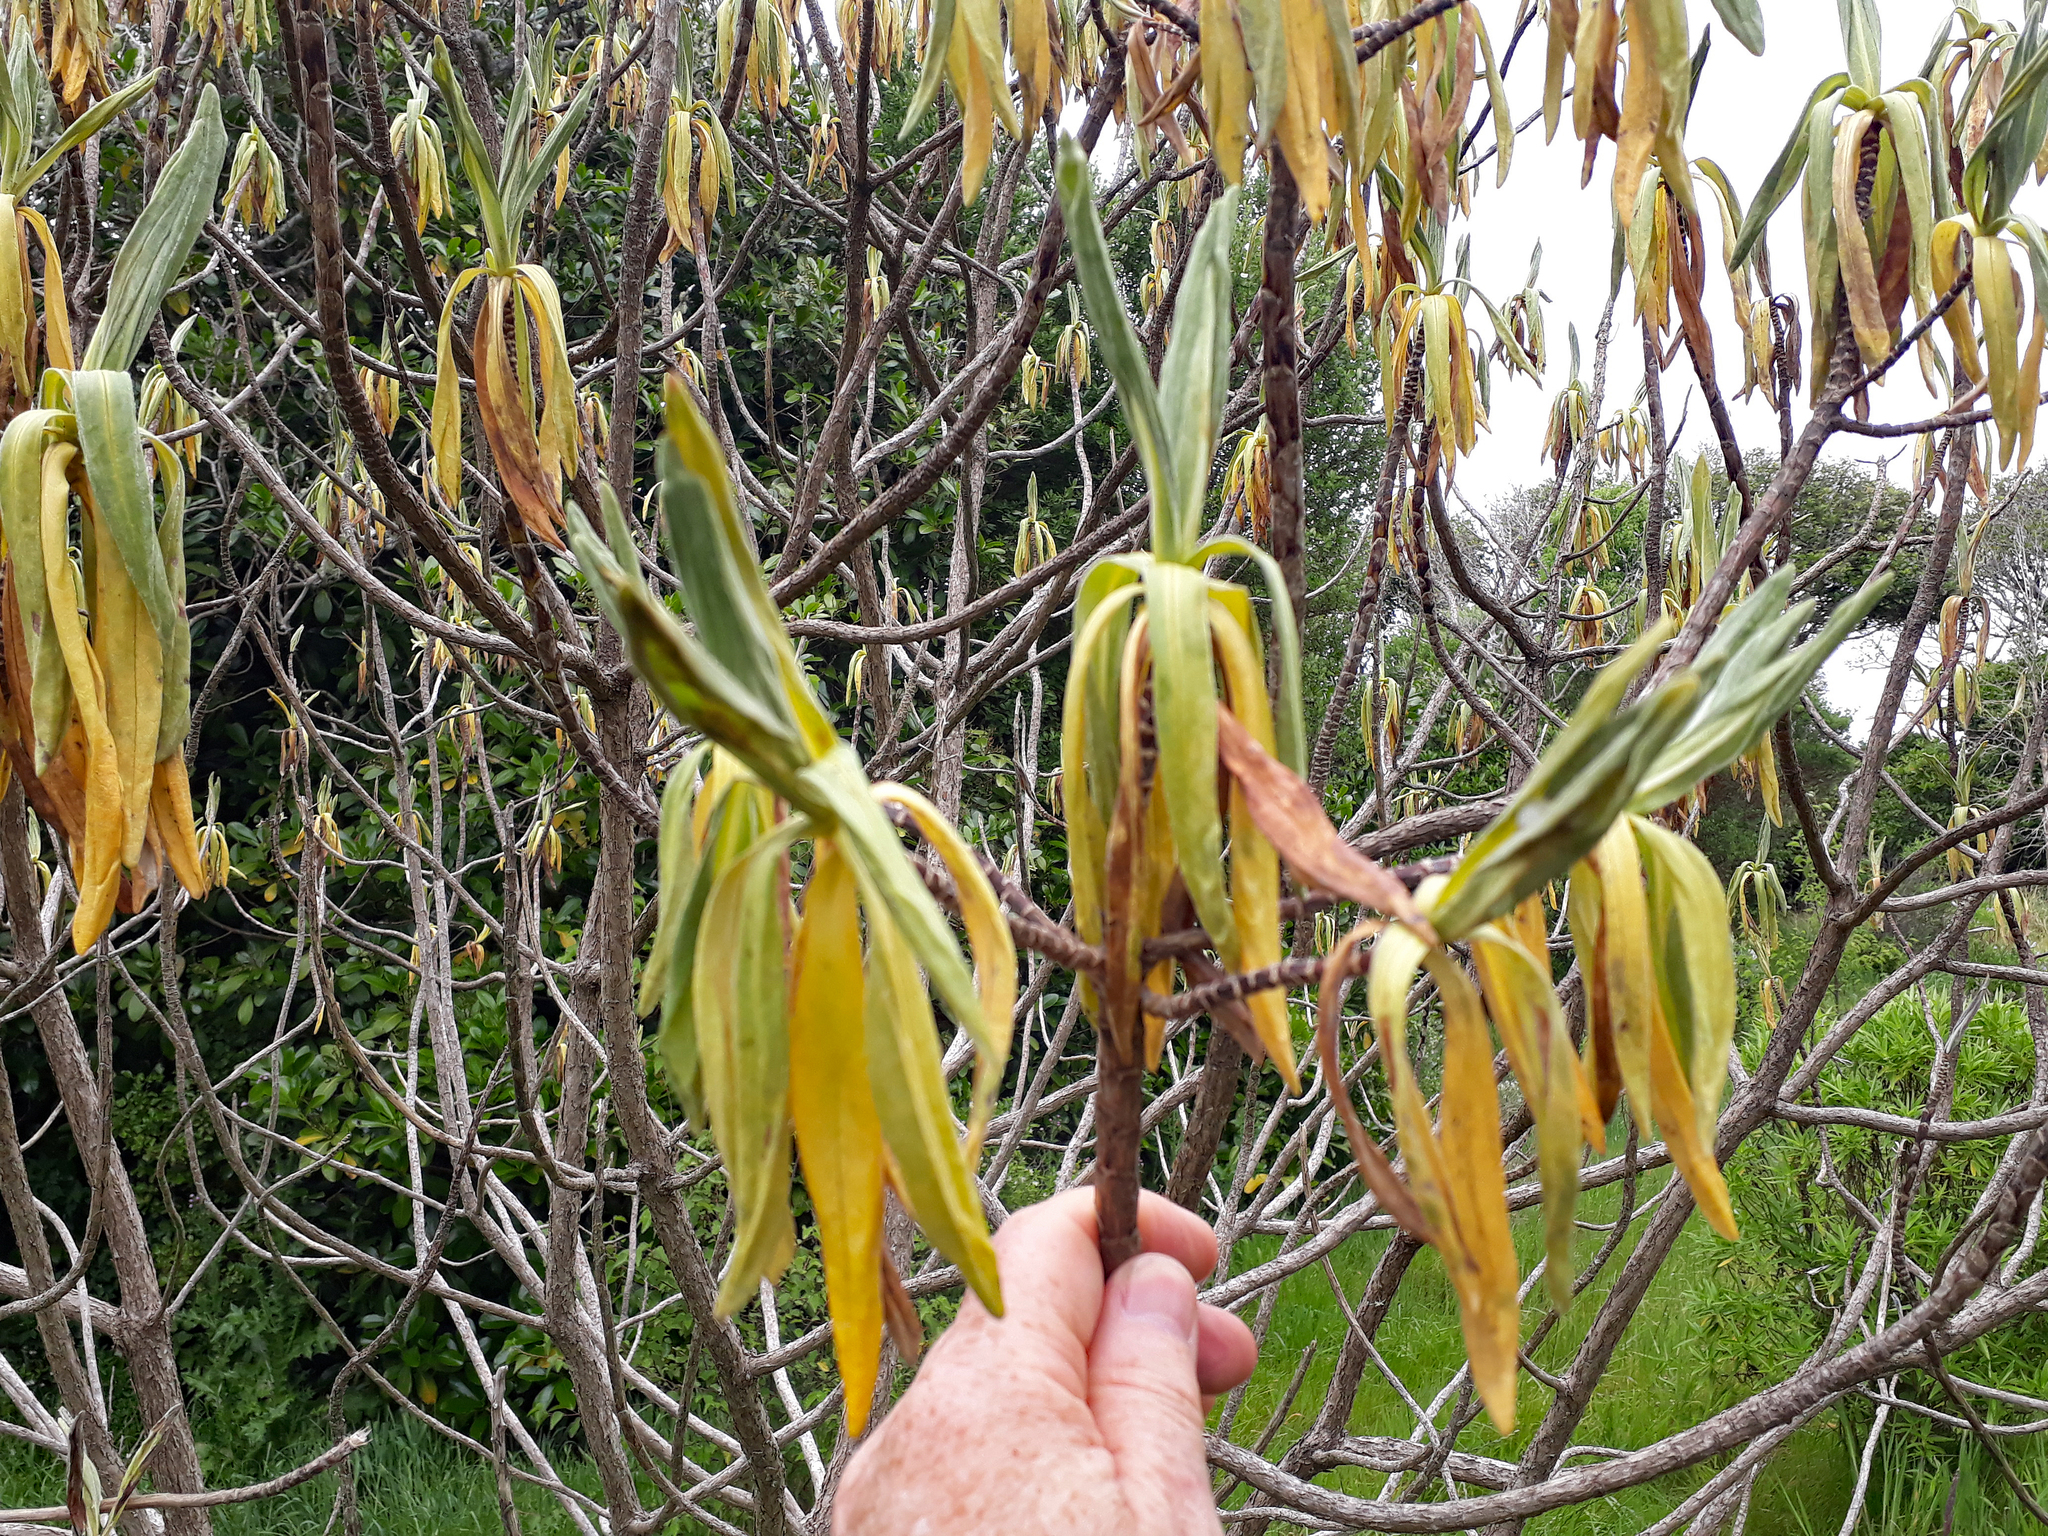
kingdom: Plantae
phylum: Tracheophyta
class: Magnoliopsida
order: Asterales
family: Asteraceae
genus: Brachyglottis
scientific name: Brachyglottis huntii
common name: Chatham island christmas tree
